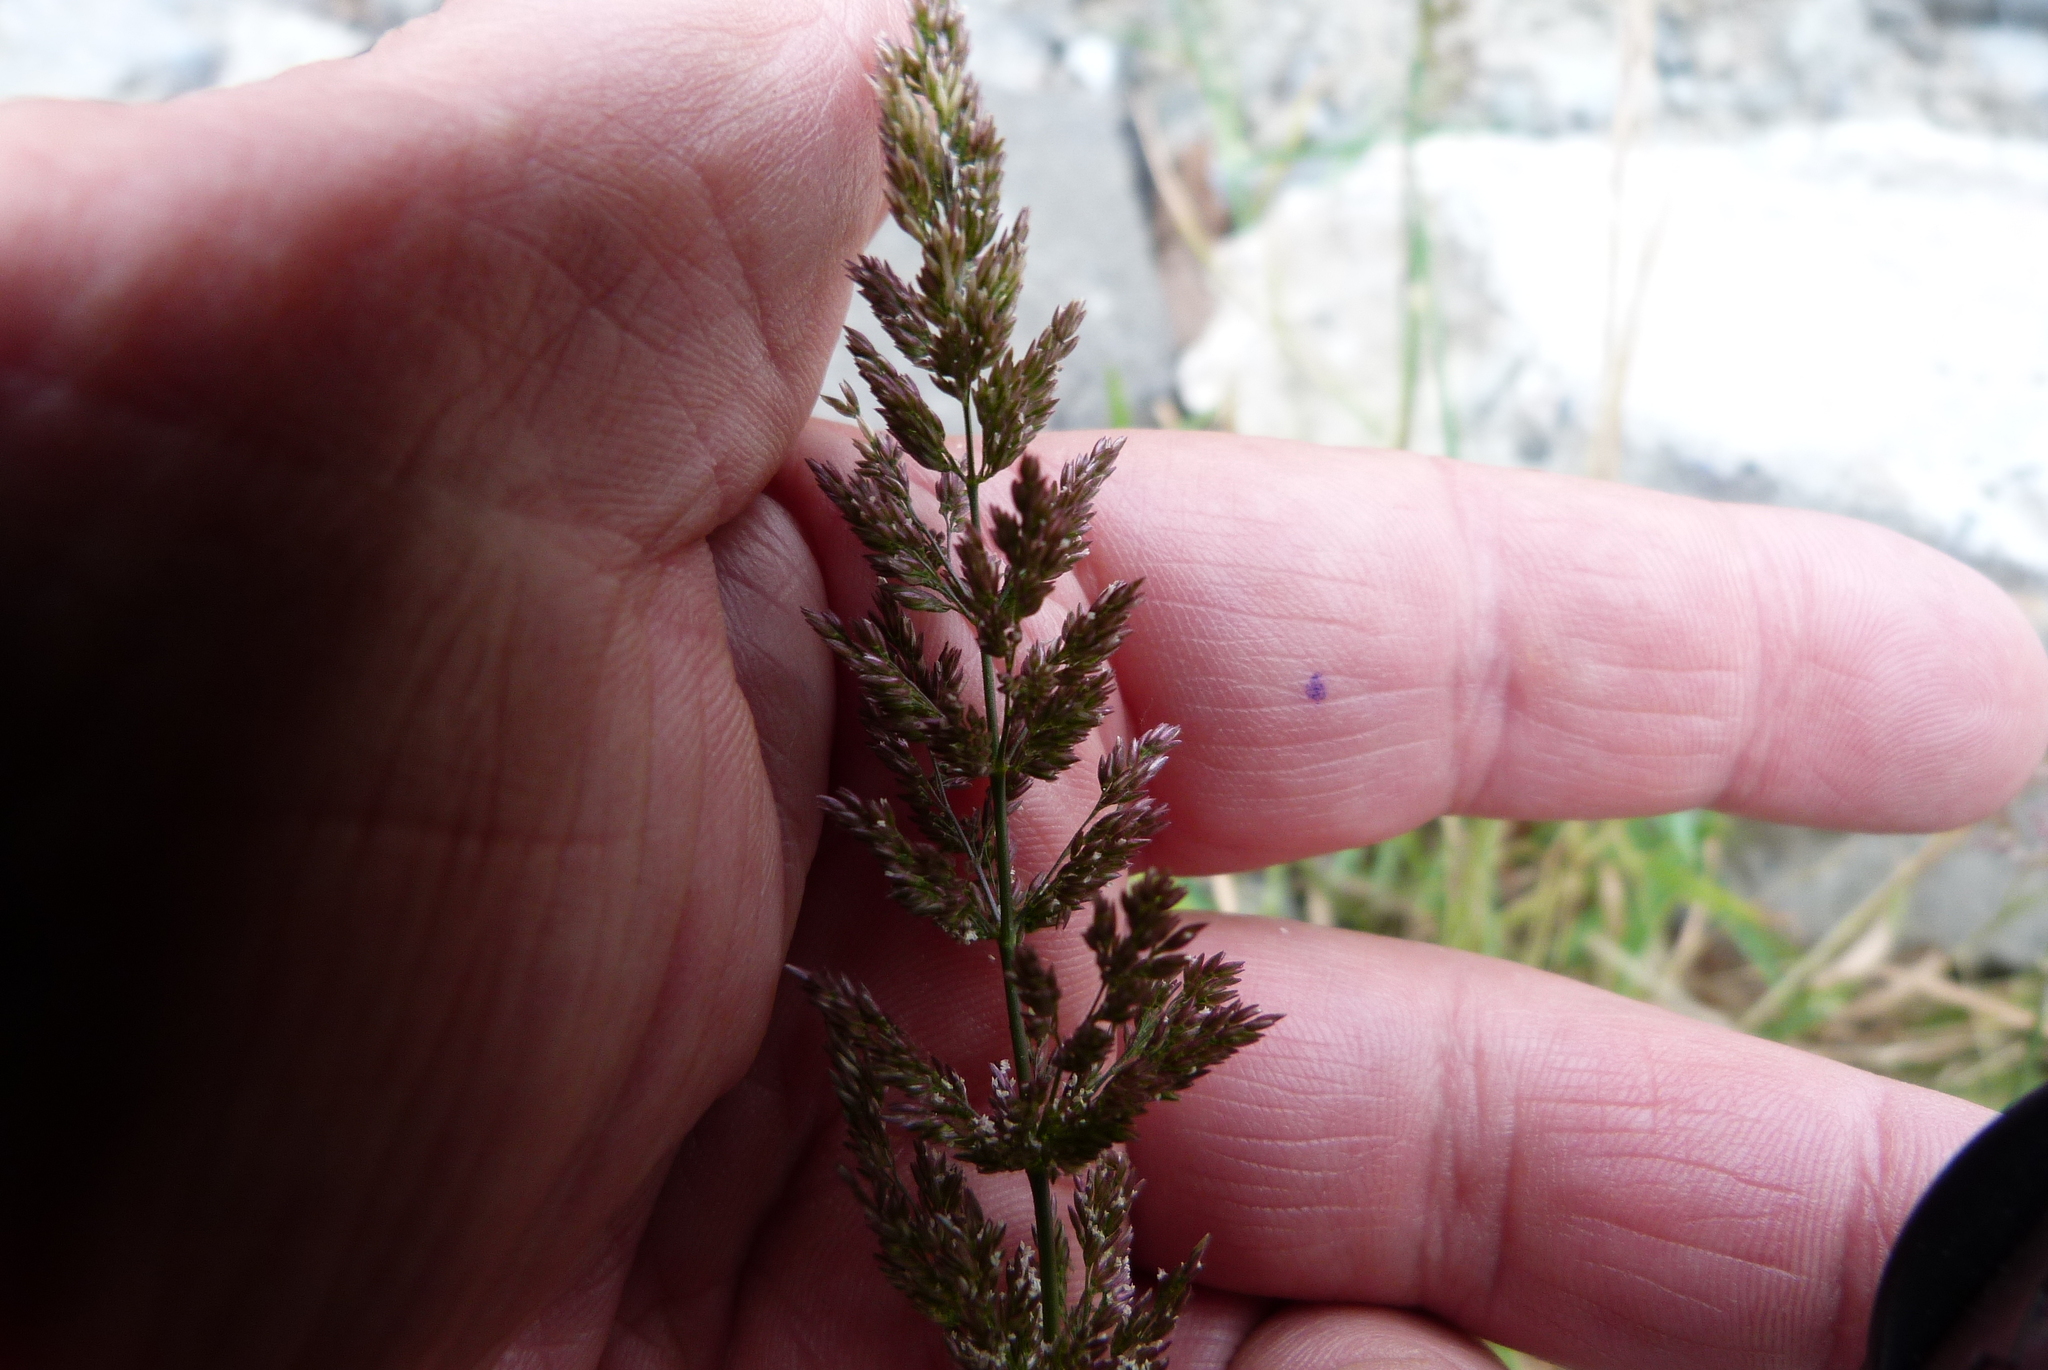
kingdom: Plantae
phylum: Tracheophyta
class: Liliopsida
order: Poales
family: Poaceae
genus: Polypogon
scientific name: Polypogon viridis
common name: Water bent
